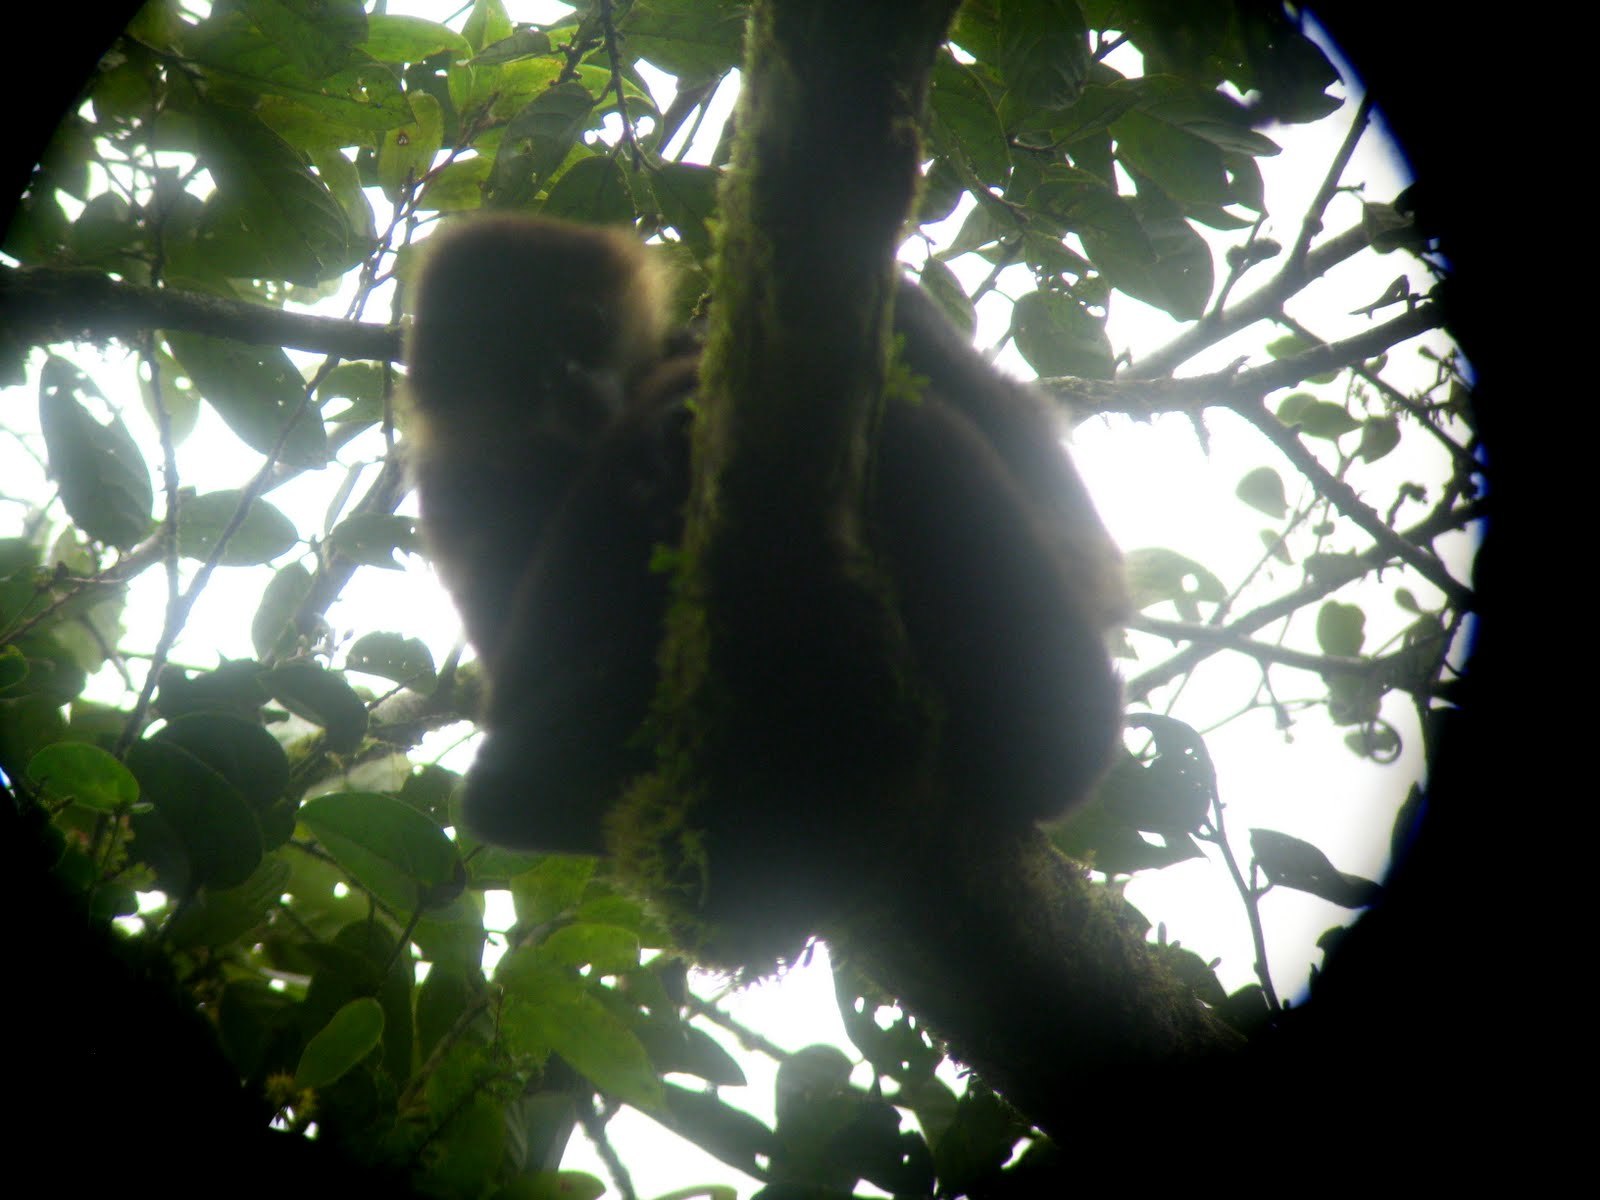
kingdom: Animalia
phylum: Chordata
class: Mammalia
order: Primates
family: Atelidae
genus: Ateles
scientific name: Ateles geoffroyi
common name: Black-handed spider monkey
